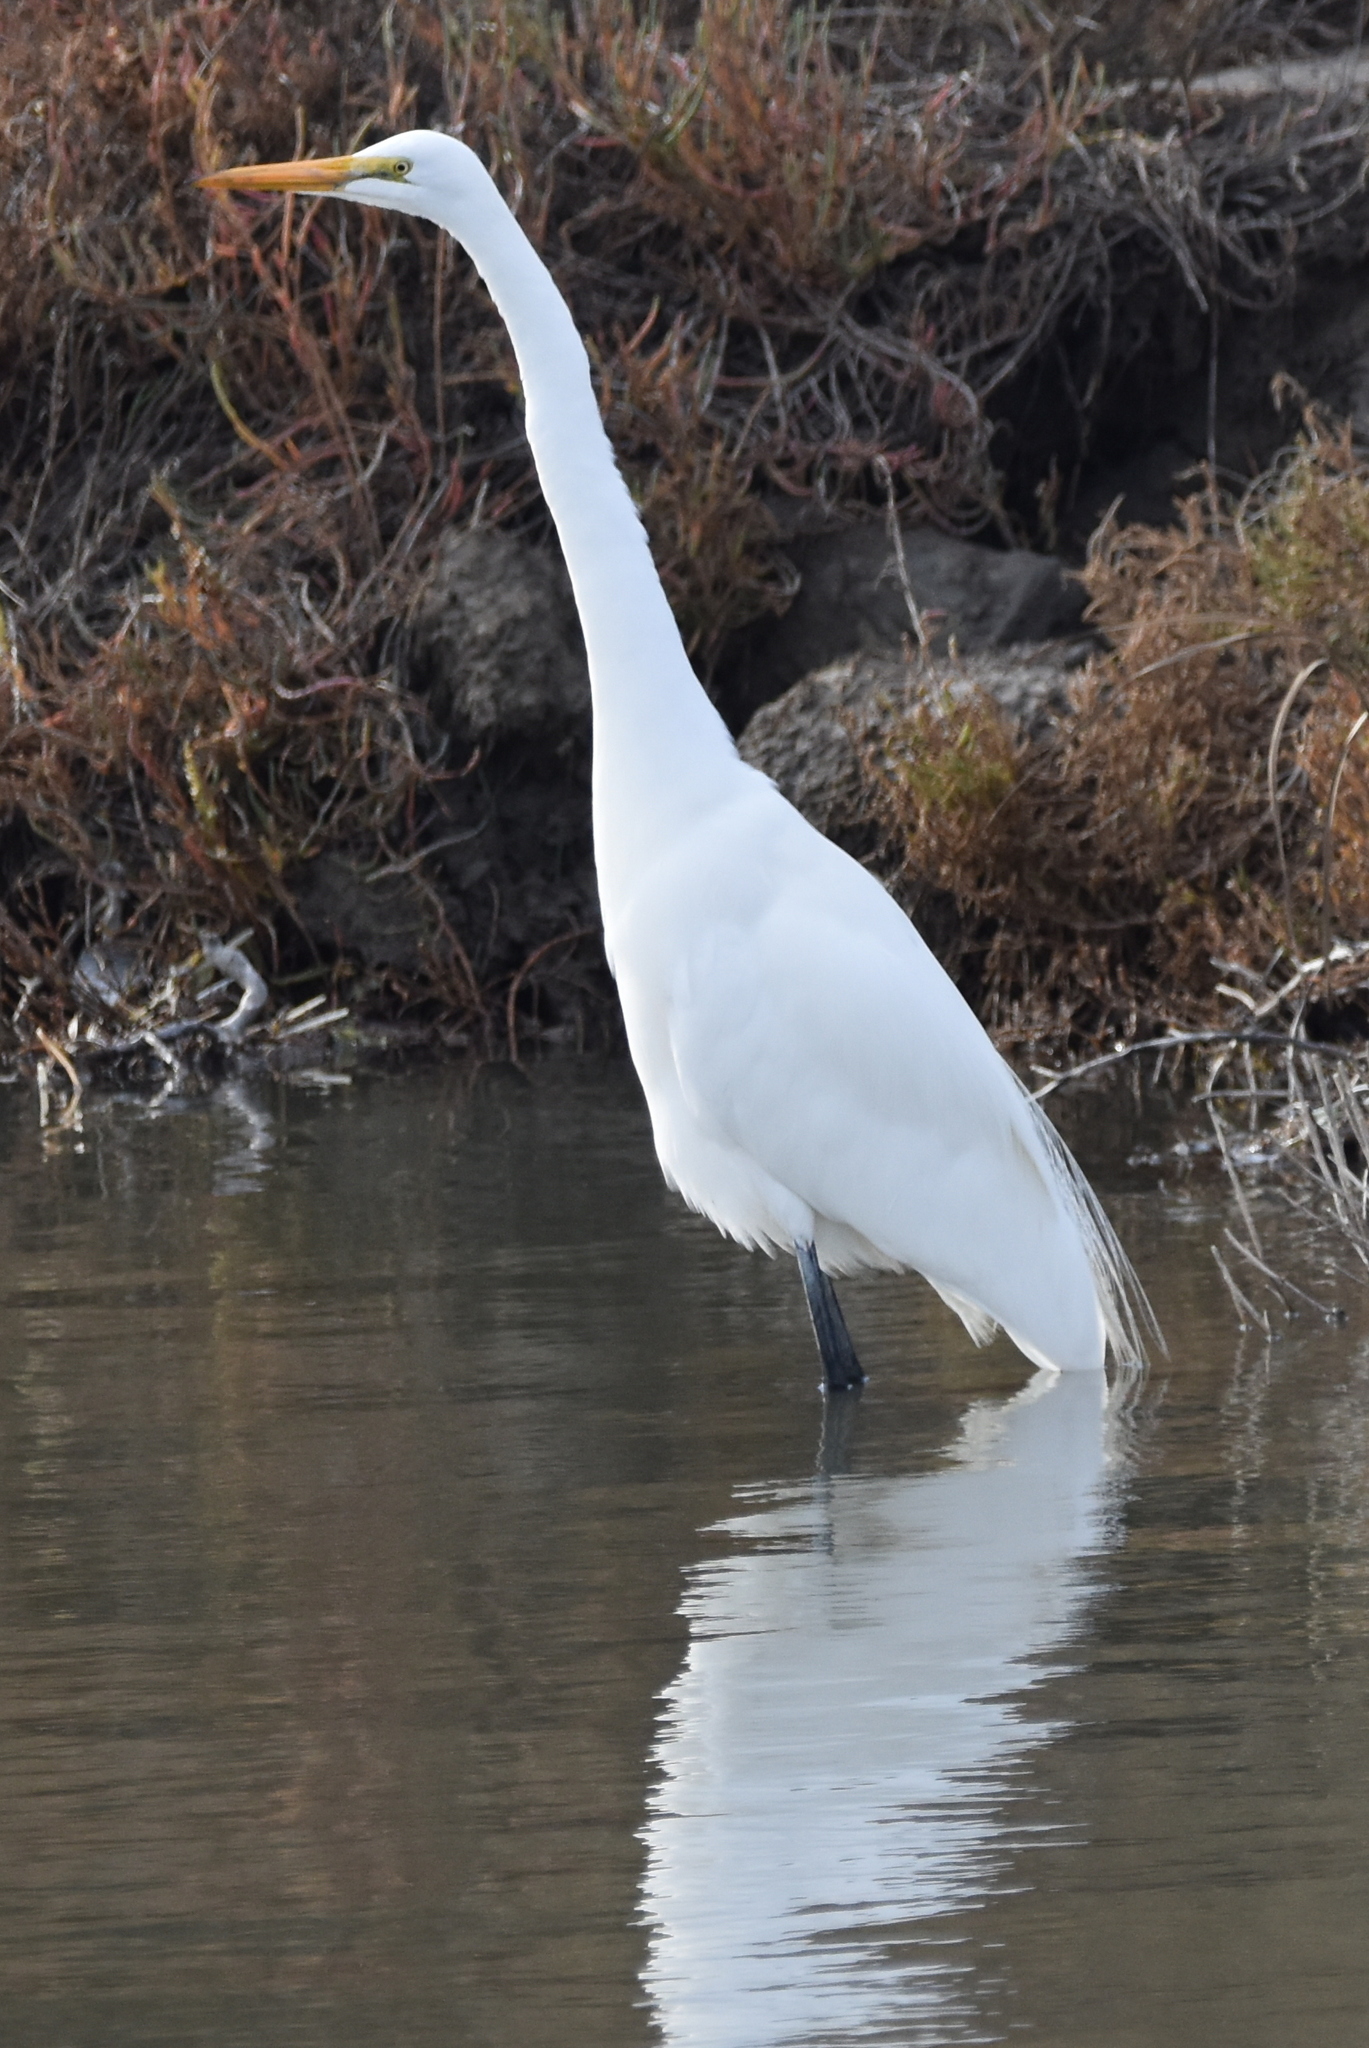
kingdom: Animalia
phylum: Chordata
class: Aves
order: Pelecaniformes
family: Ardeidae
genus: Ardea
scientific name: Ardea alba
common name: Great egret
